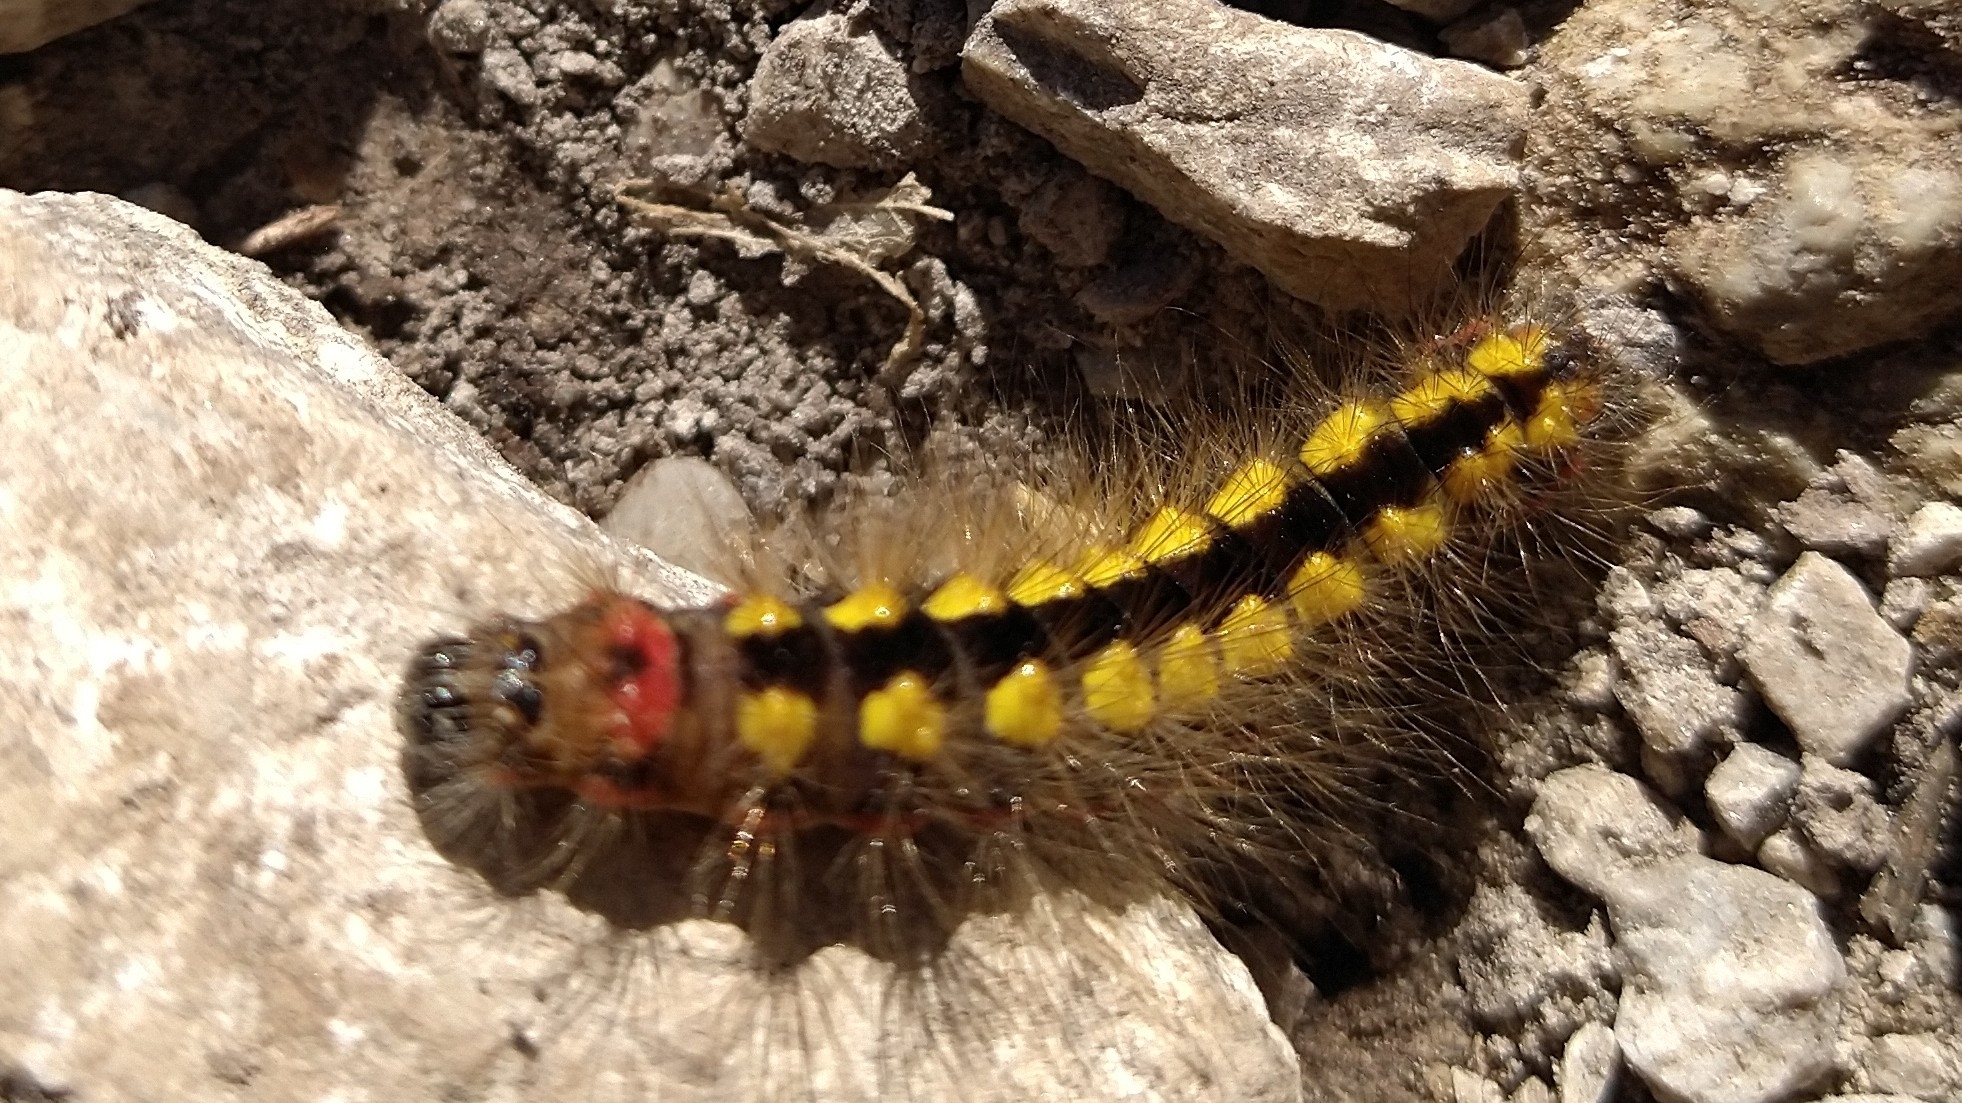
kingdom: Animalia
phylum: Arthropoda
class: Insecta
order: Lepidoptera
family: Noctuidae
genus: Acronicta
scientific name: Acronicta euphorbiae
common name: Sweet gale moth
